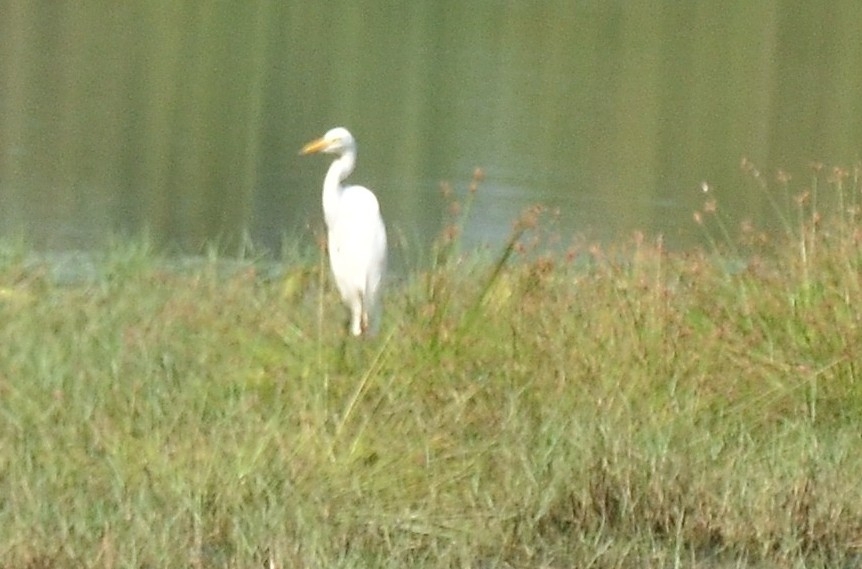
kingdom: Animalia
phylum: Chordata
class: Aves
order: Pelecaniformes
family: Ardeidae
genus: Egretta
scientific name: Egretta intermedia
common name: Intermediate egret
